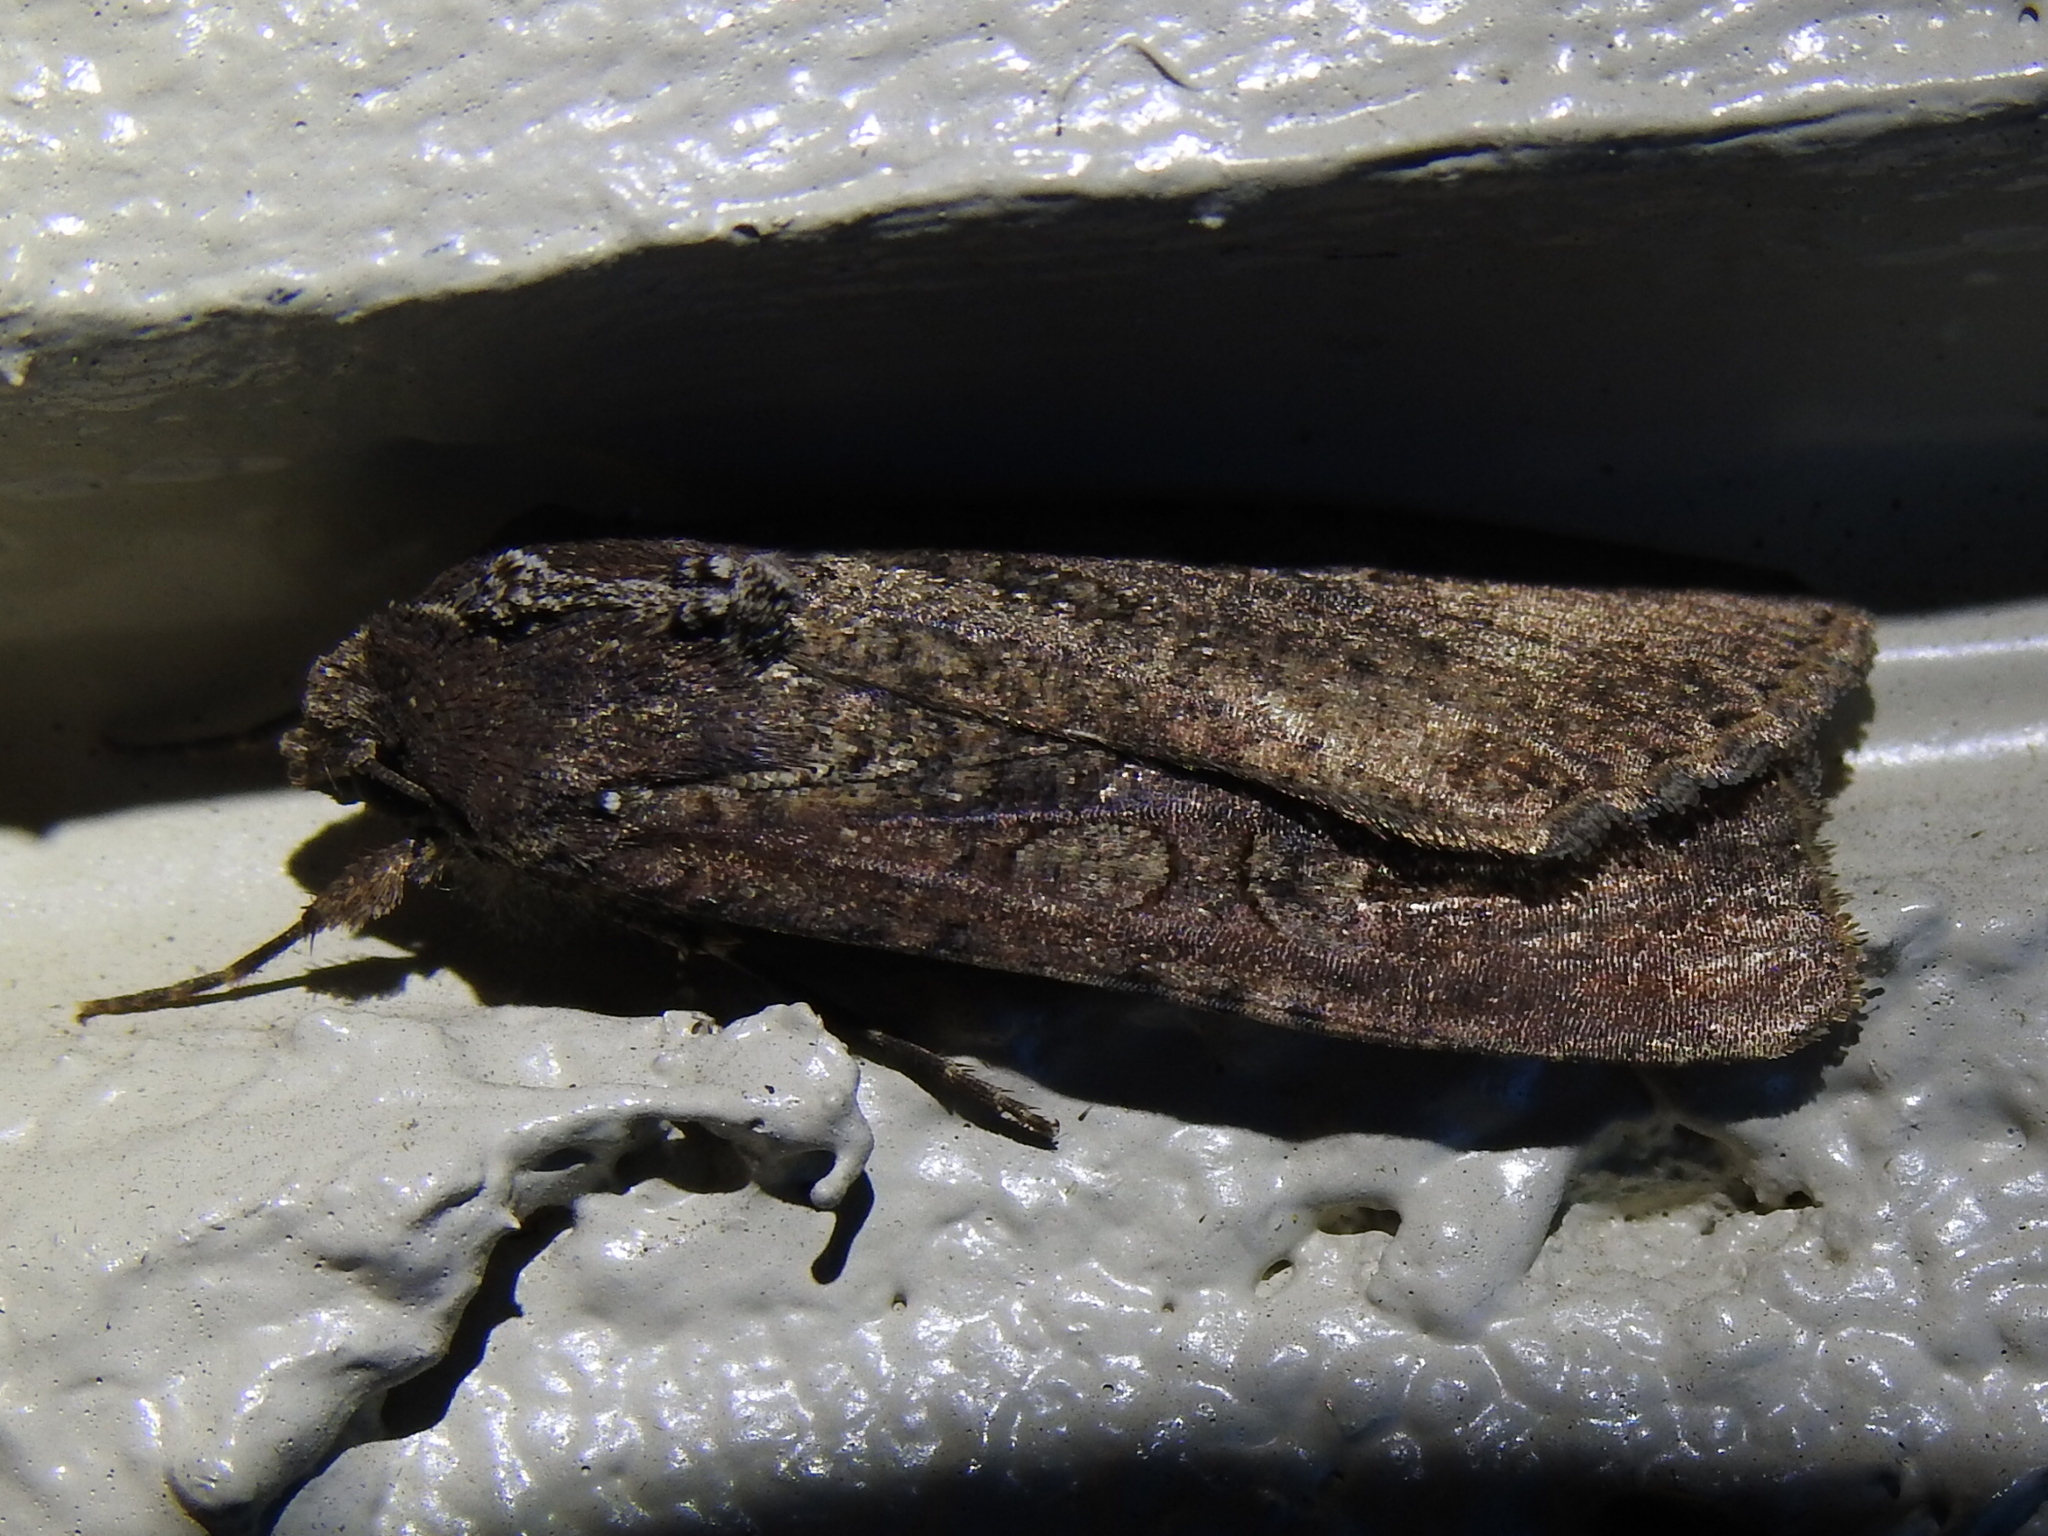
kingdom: Animalia
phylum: Arthropoda
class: Insecta
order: Lepidoptera
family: Noctuidae
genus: Peridroma
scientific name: Peridroma saucia
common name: Pearly underwing
